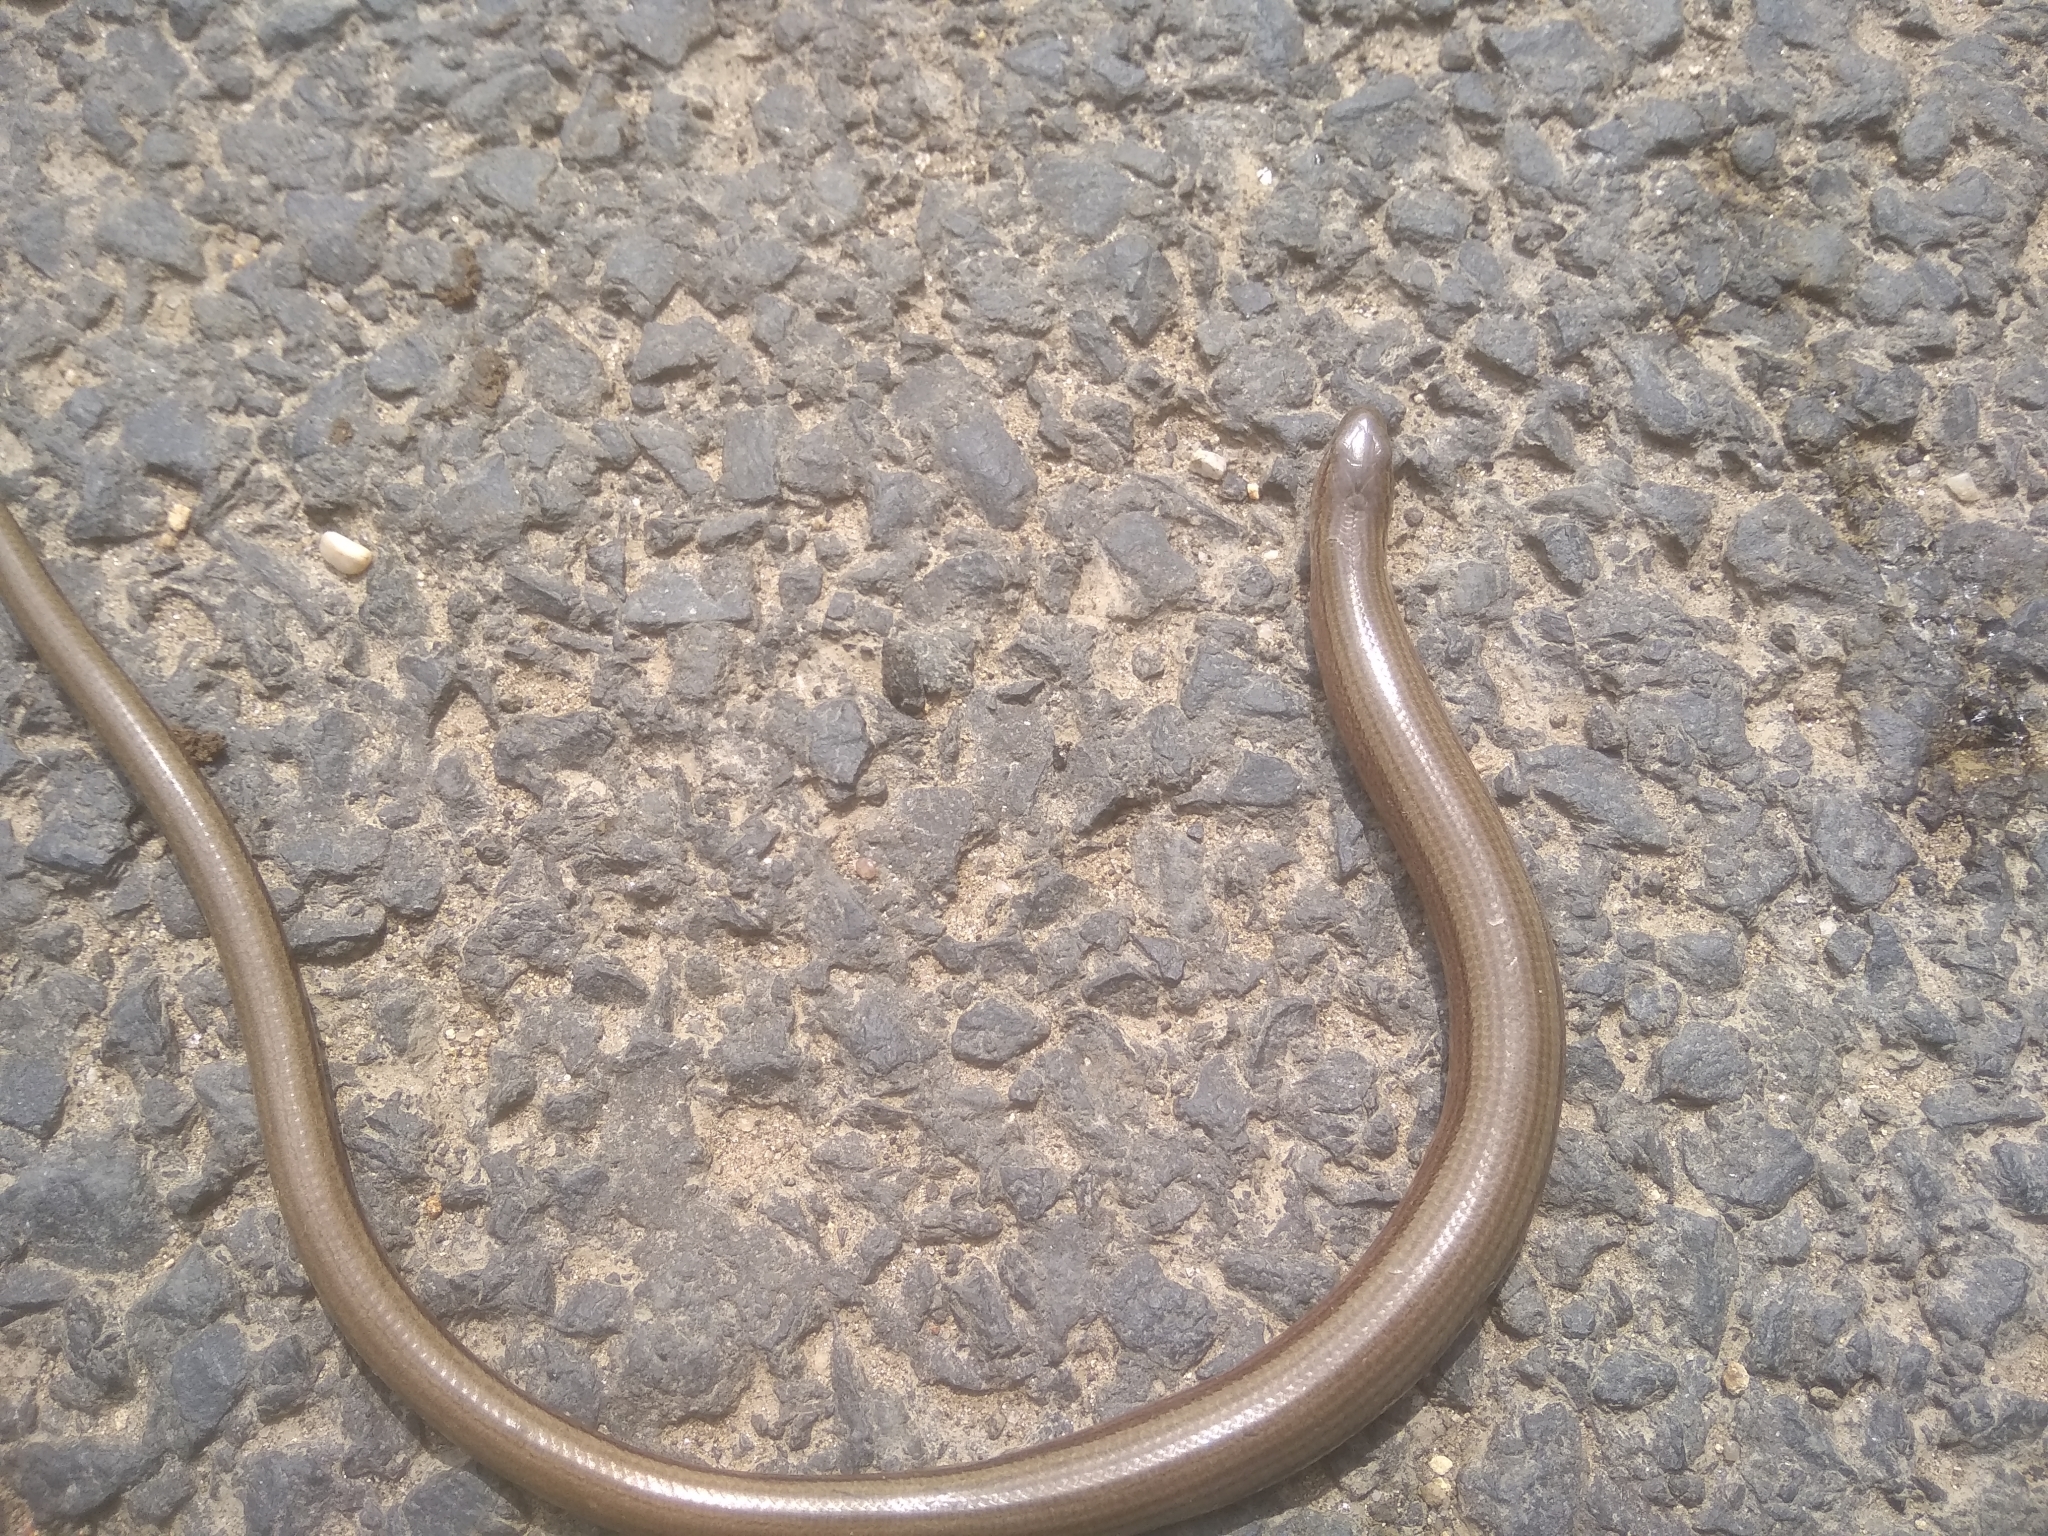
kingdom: Animalia
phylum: Chordata
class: Squamata
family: Anguidae
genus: Anguis
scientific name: Anguis fragilis
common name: Slow worm
